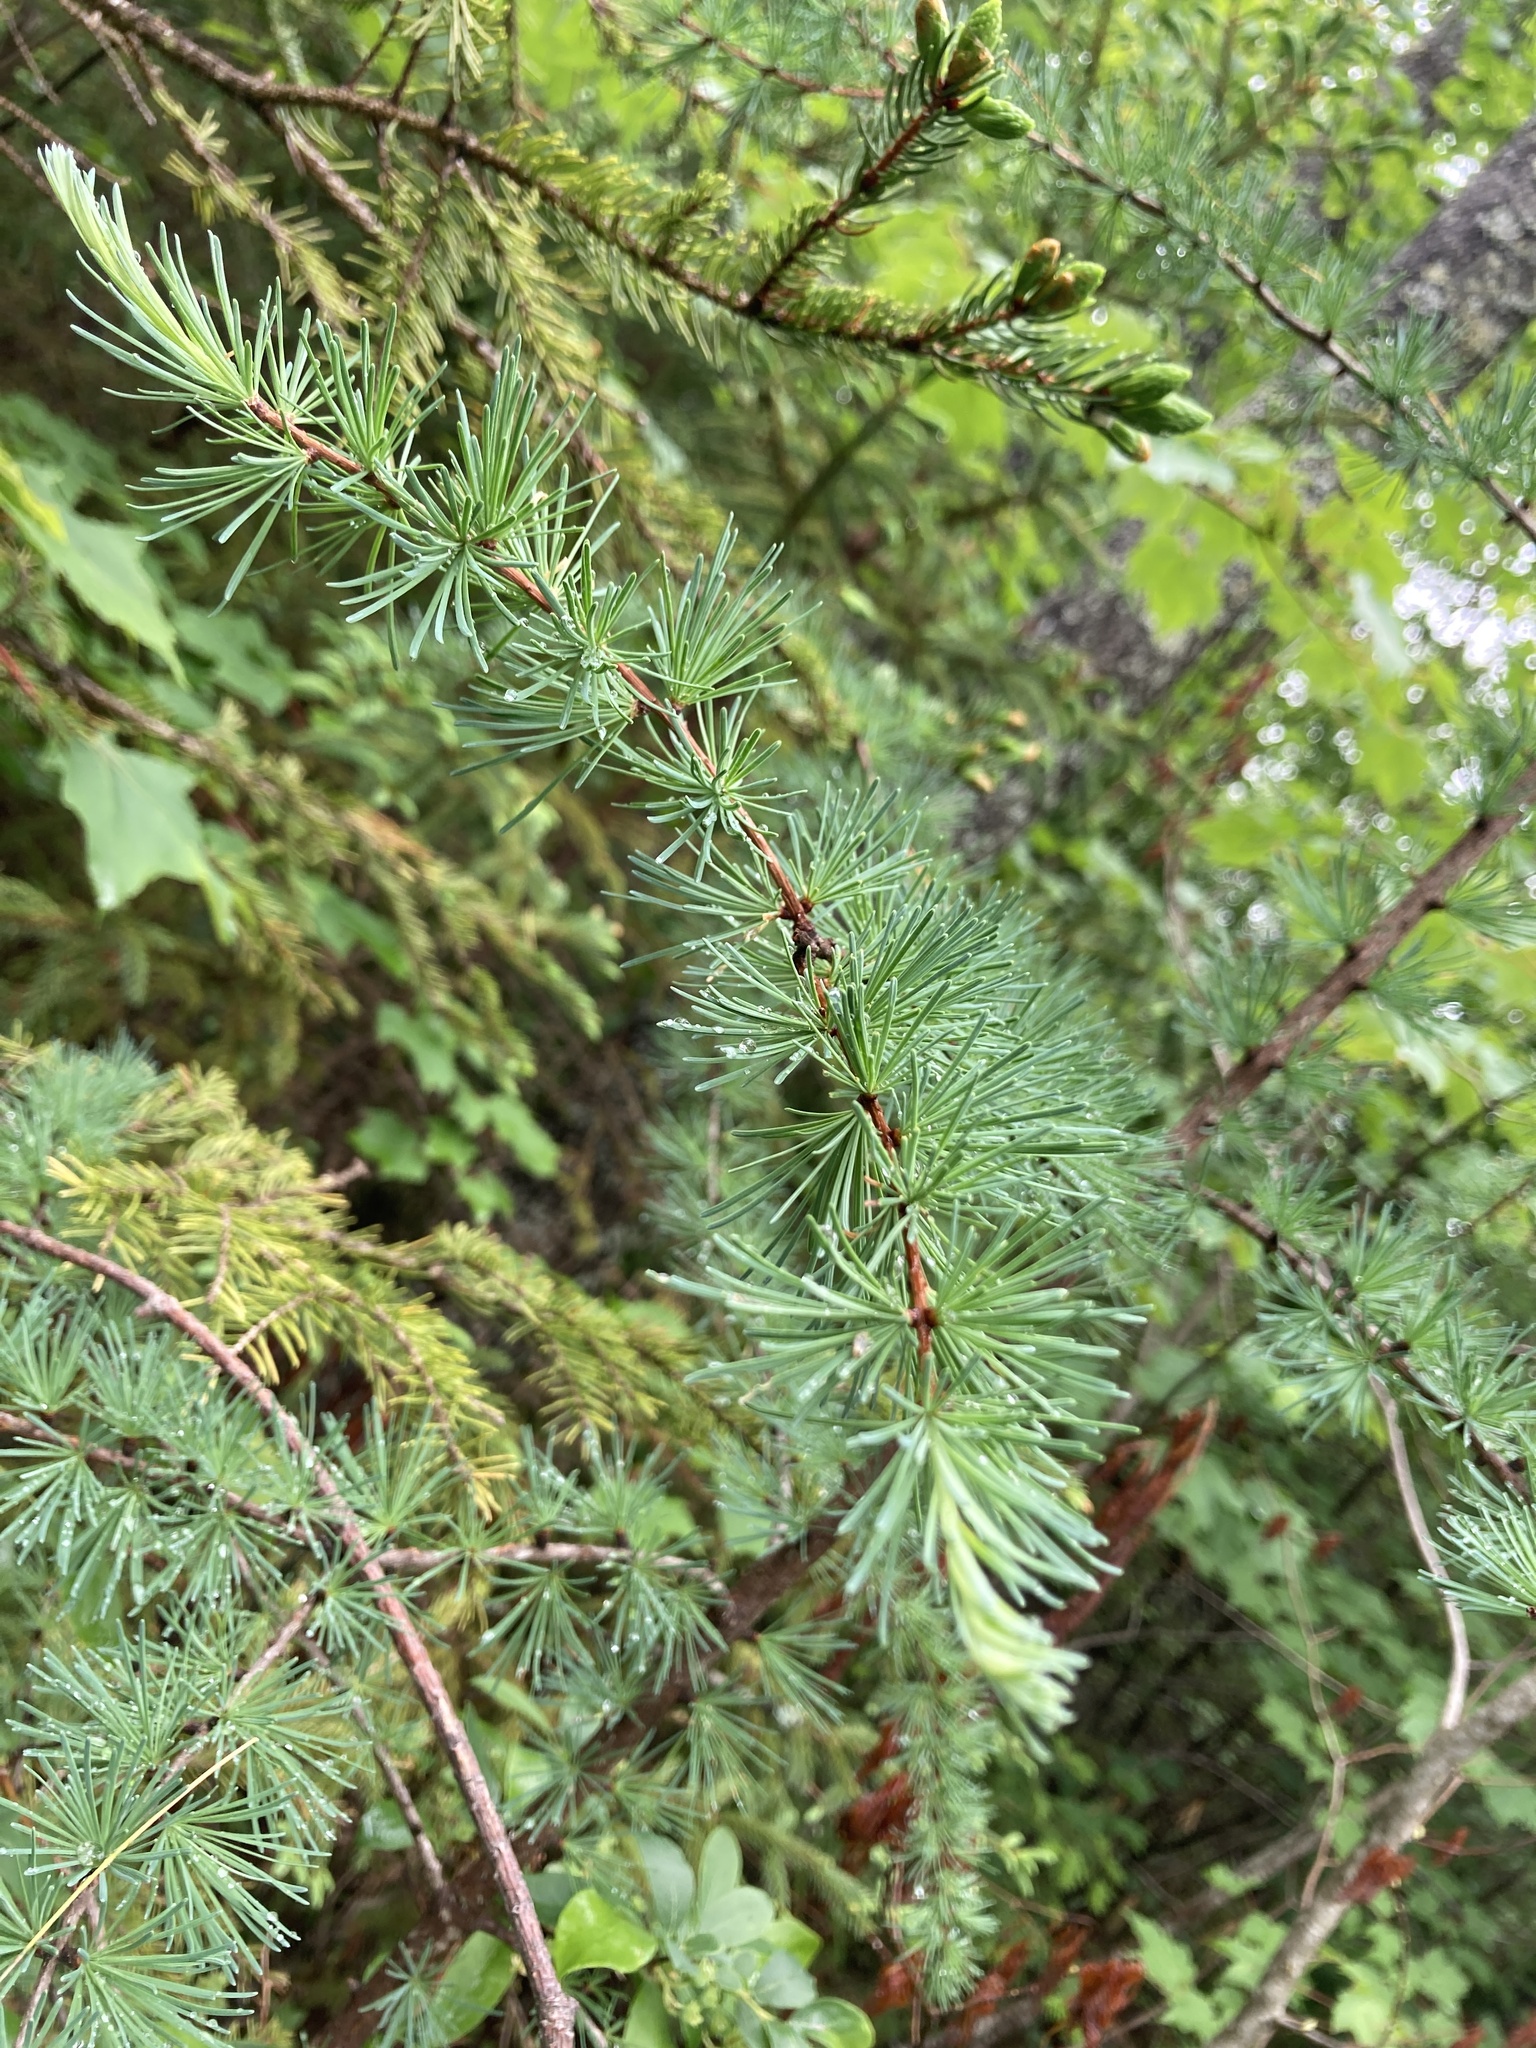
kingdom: Plantae
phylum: Tracheophyta
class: Pinopsida
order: Pinales
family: Pinaceae
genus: Larix
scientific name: Larix laricina
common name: American larch
